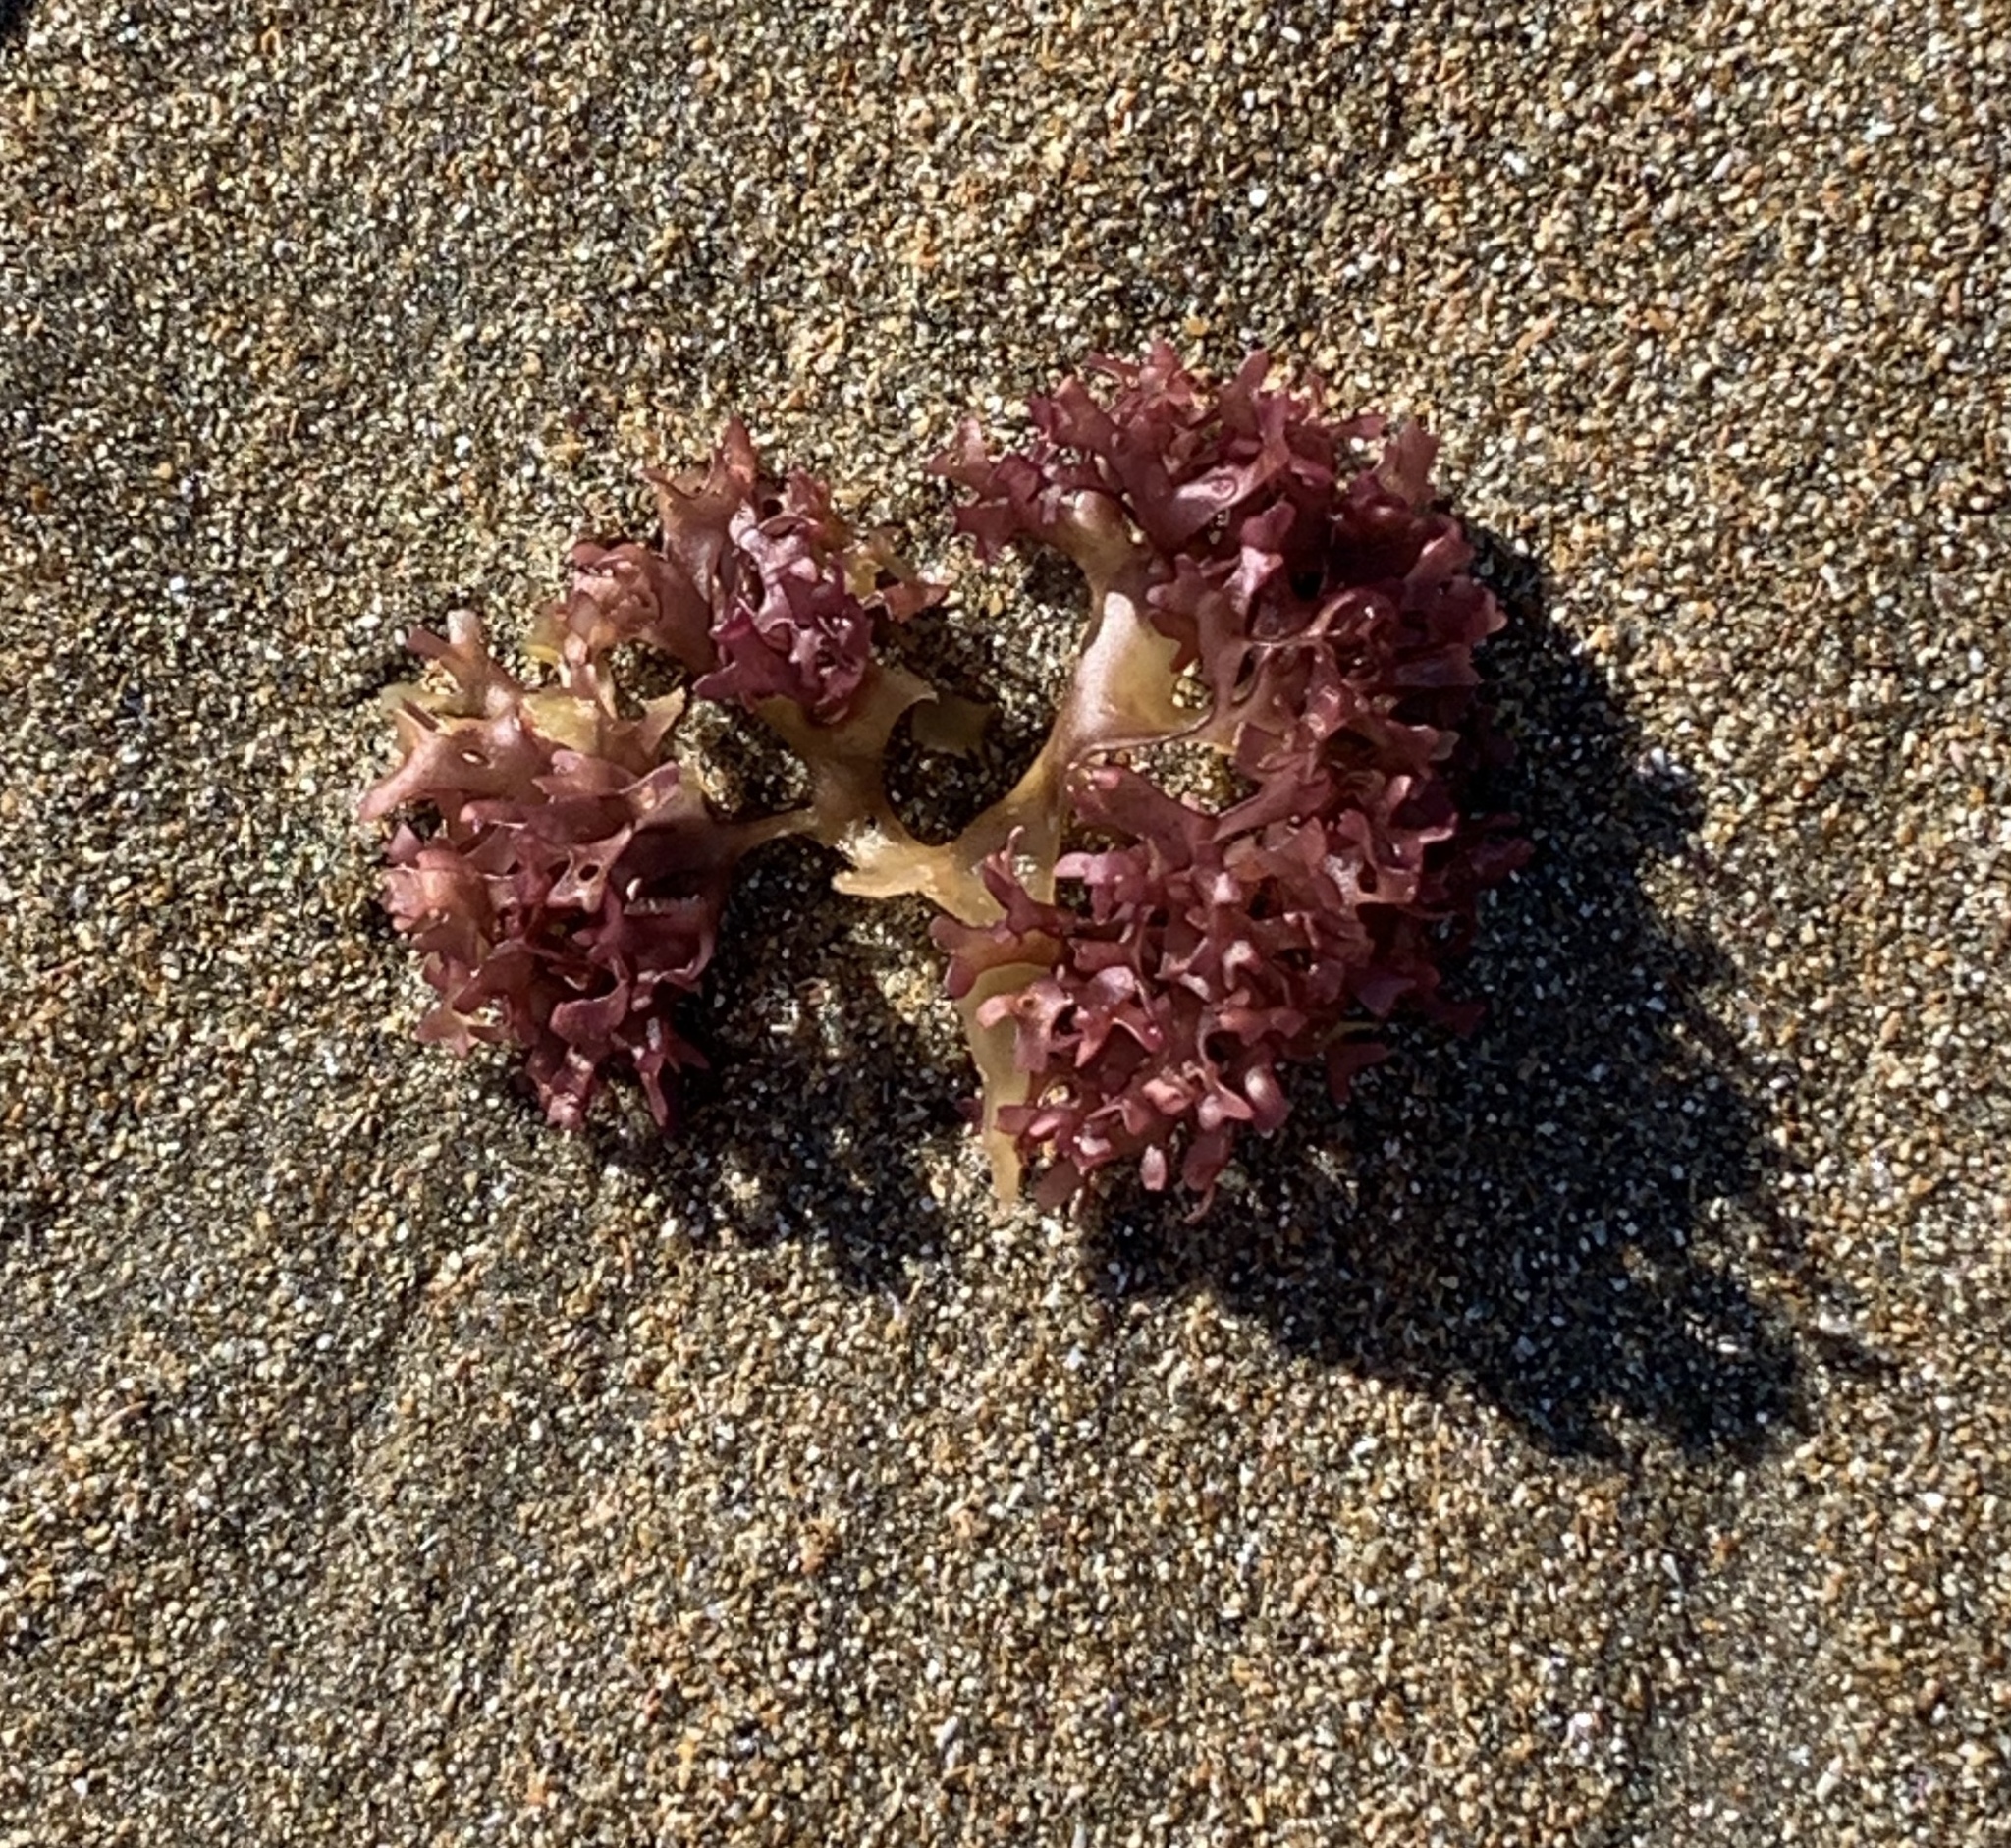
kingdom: Plantae
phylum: Rhodophyta
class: Florideophyceae
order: Gigartinales
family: Gigartinaceae
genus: Chondrus
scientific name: Chondrus crispus
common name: Carrageen
